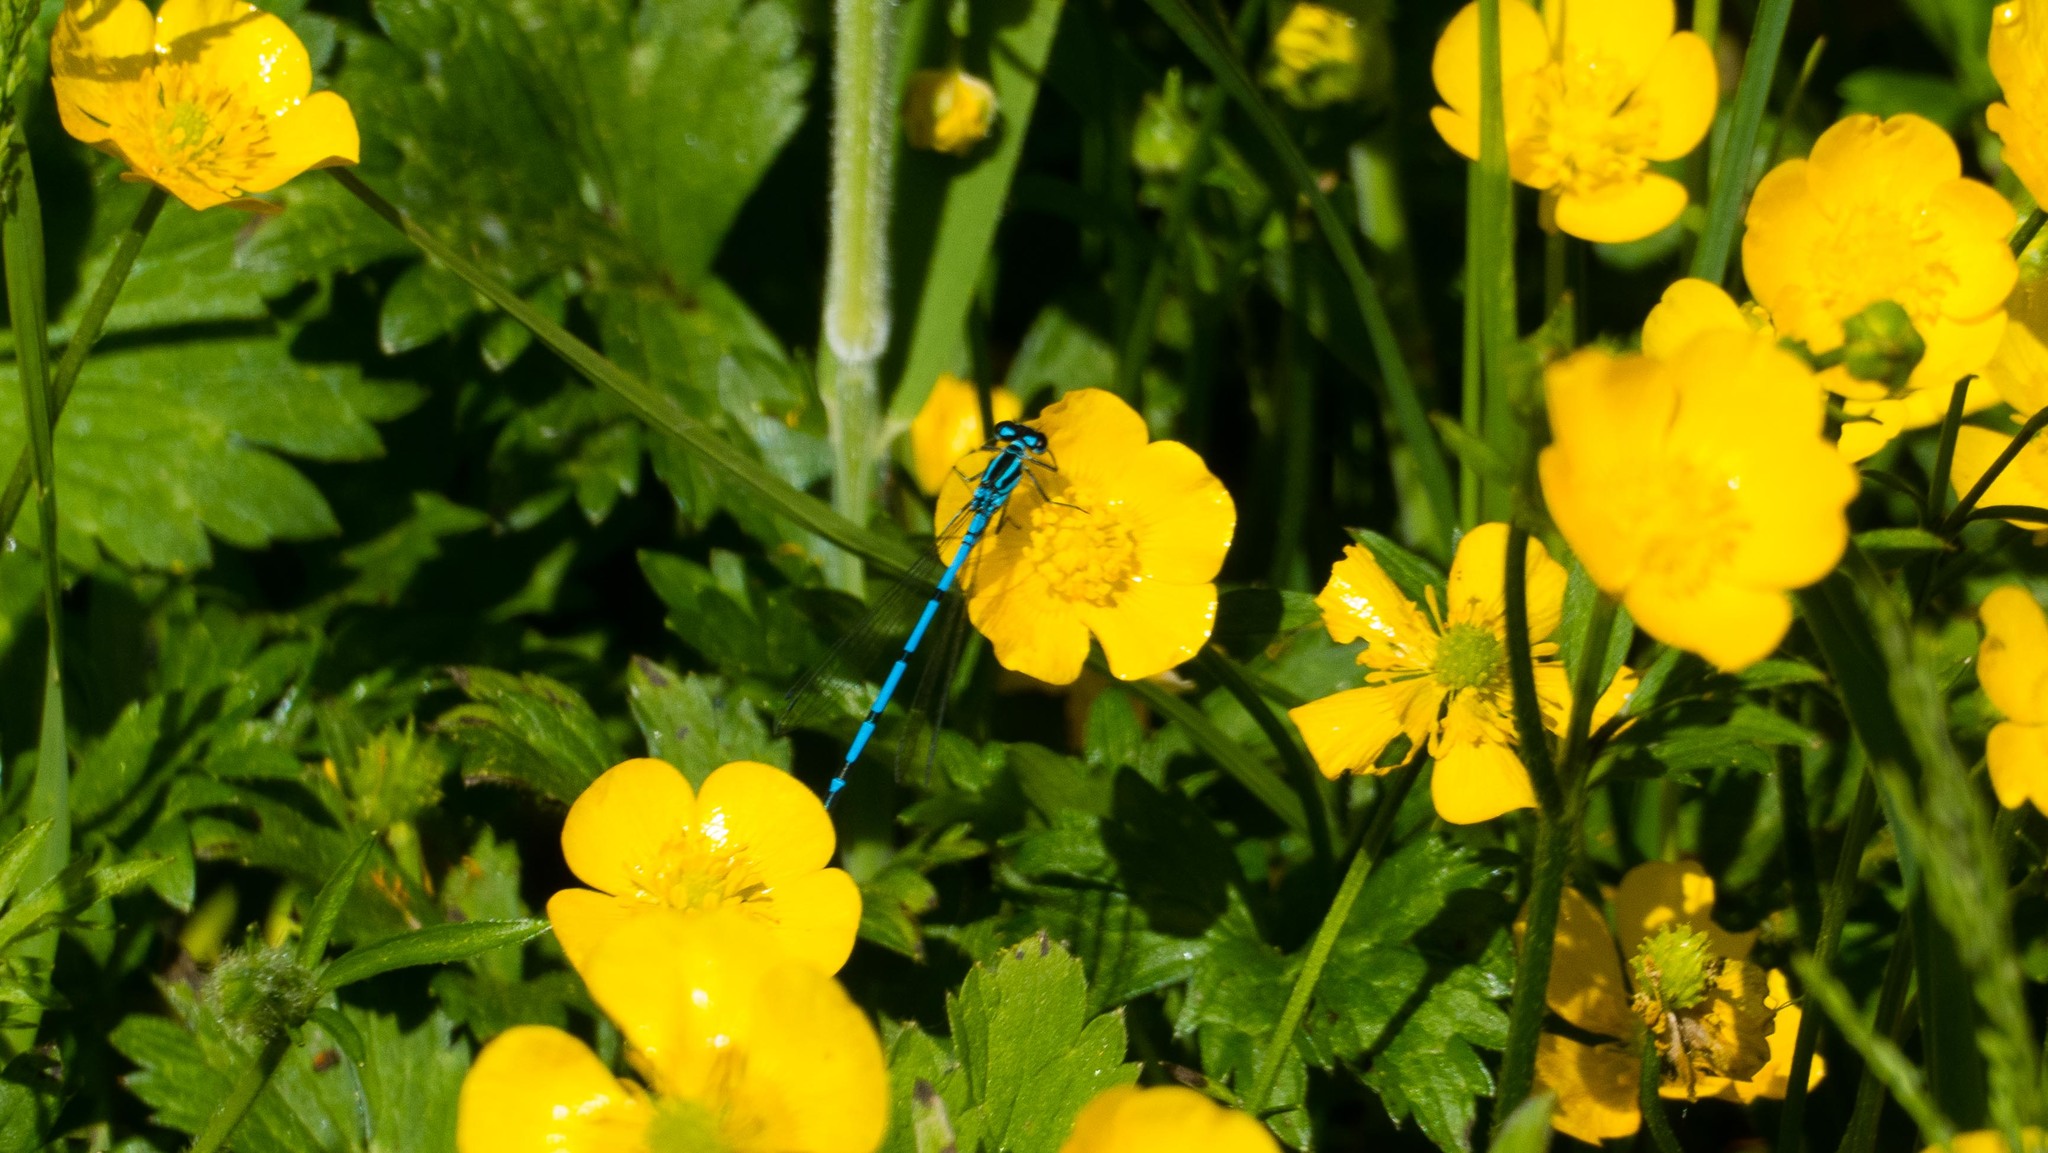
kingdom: Animalia
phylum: Arthropoda
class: Insecta
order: Odonata
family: Coenagrionidae
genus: Coenagrion
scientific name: Coenagrion puella
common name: Azure damselfly
